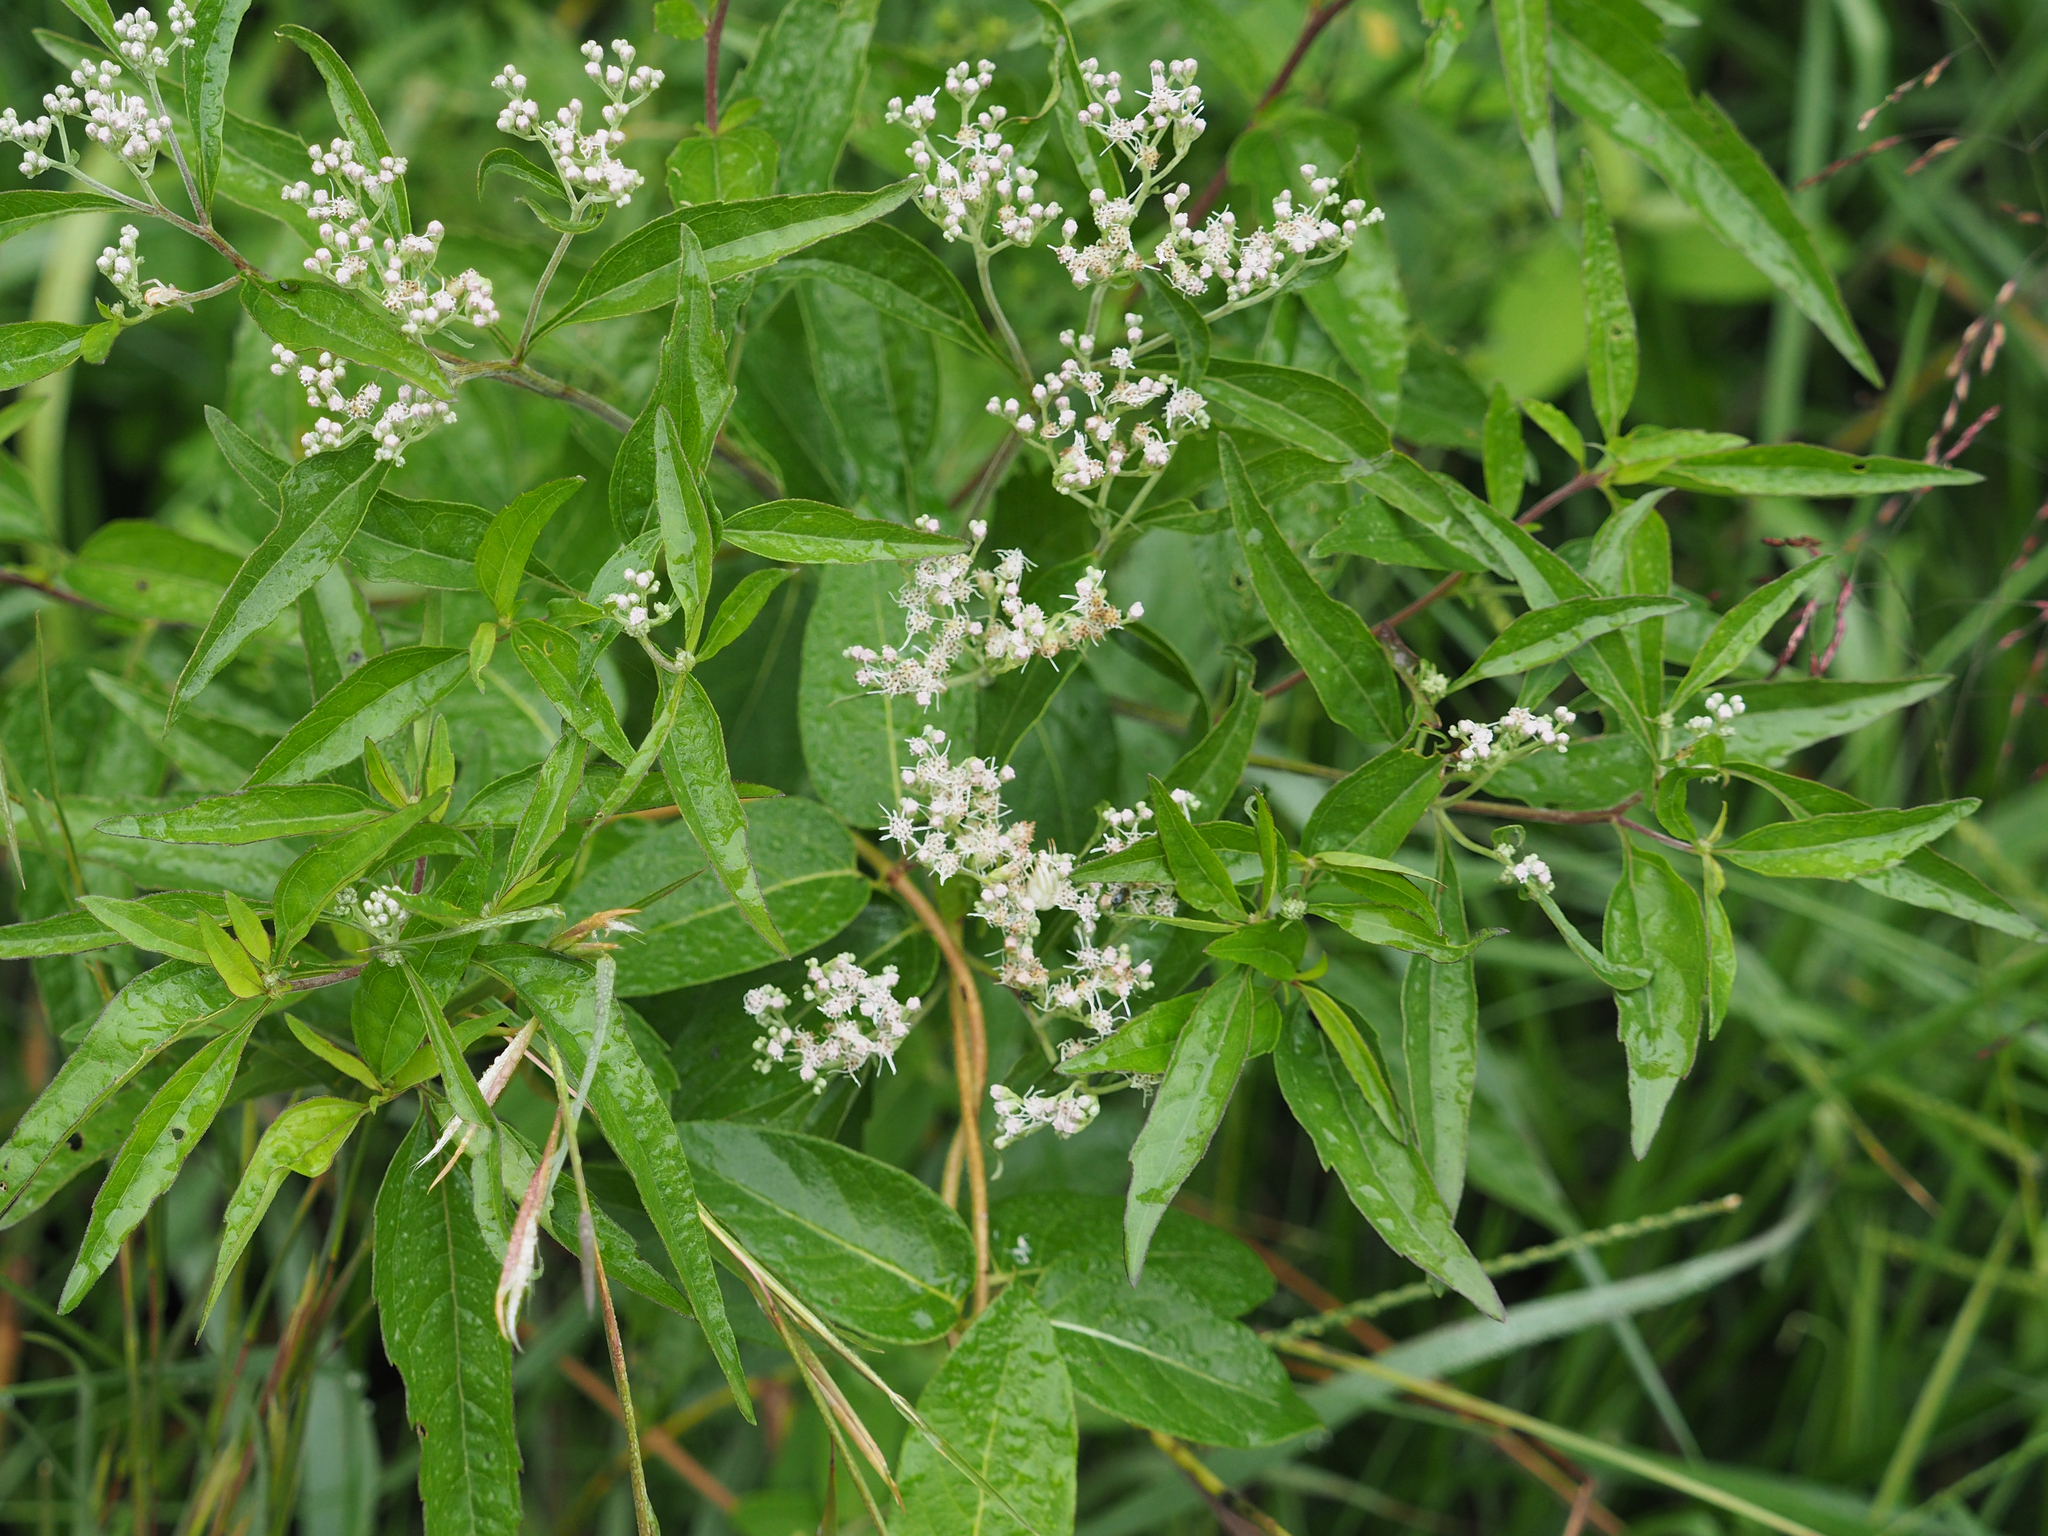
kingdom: Plantae
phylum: Tracheophyta
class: Magnoliopsida
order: Asterales
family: Asteraceae
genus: Eupatorium
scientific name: Eupatorium serotinum
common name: Late boneset
